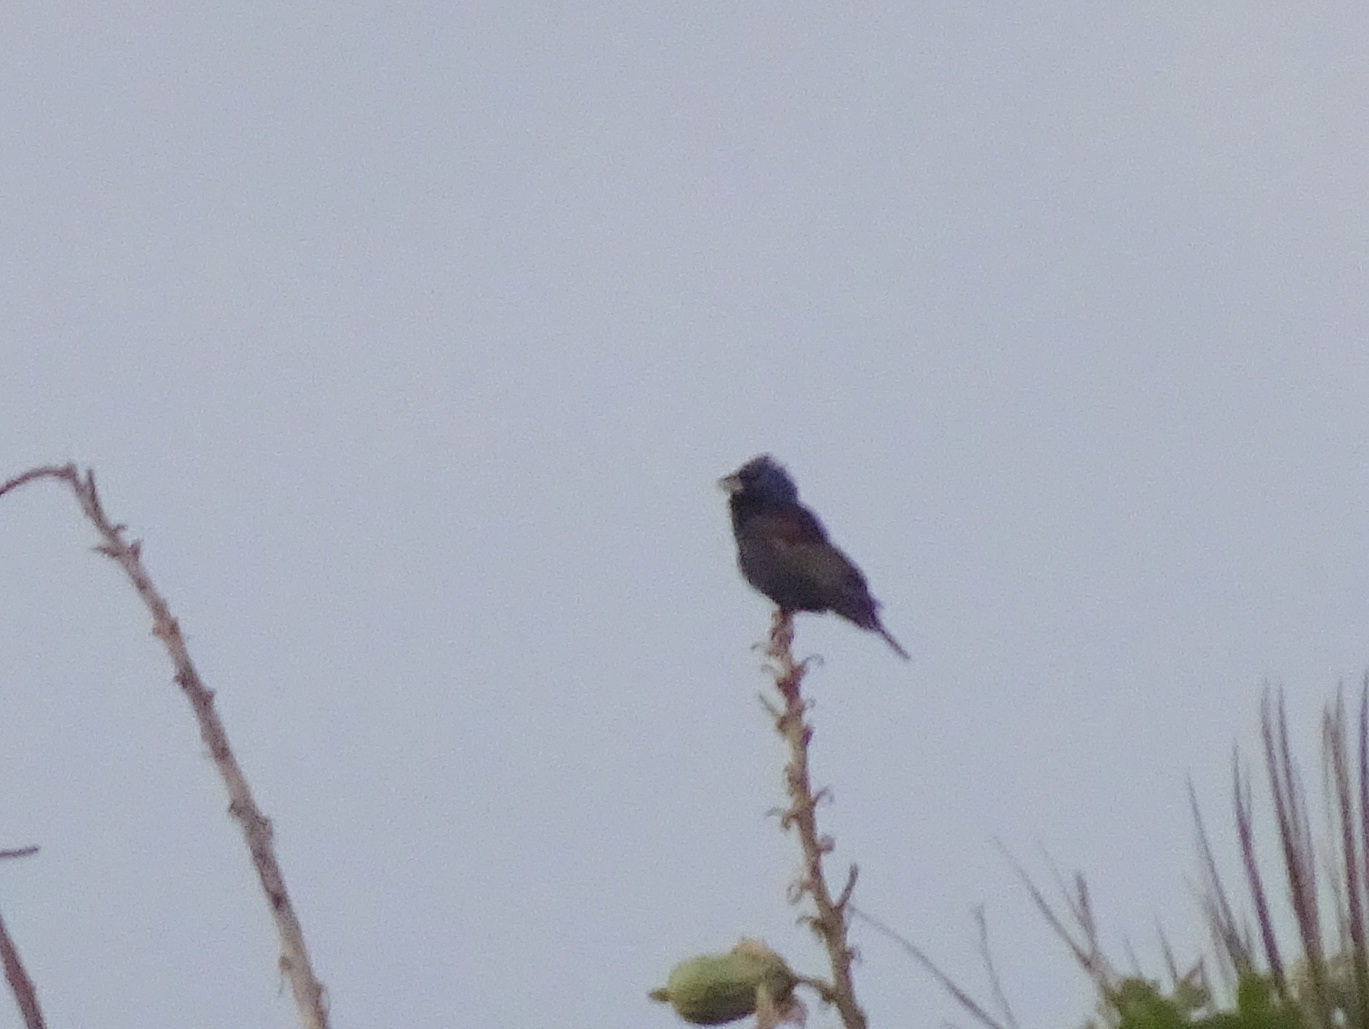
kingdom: Animalia
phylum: Chordata
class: Aves
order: Passeriformes
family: Cardinalidae
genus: Passerina
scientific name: Passerina caerulea
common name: Blue grosbeak
